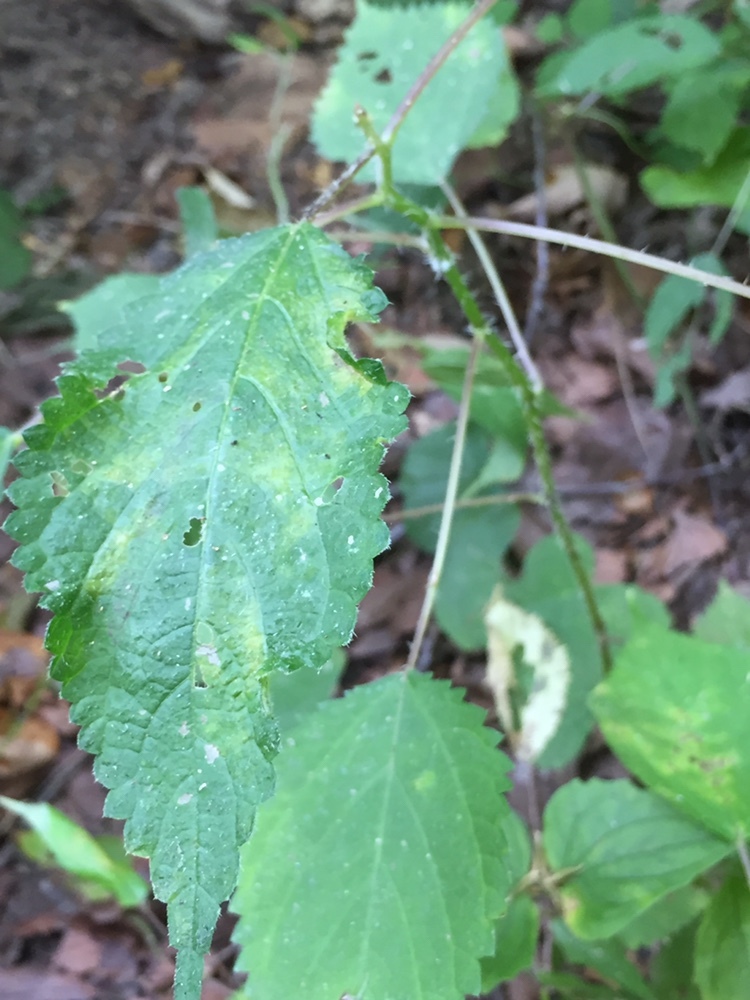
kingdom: Plantae
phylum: Tracheophyta
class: Magnoliopsida
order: Rosales
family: Urticaceae
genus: Laportea
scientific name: Laportea canadensis
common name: Canada nettle
